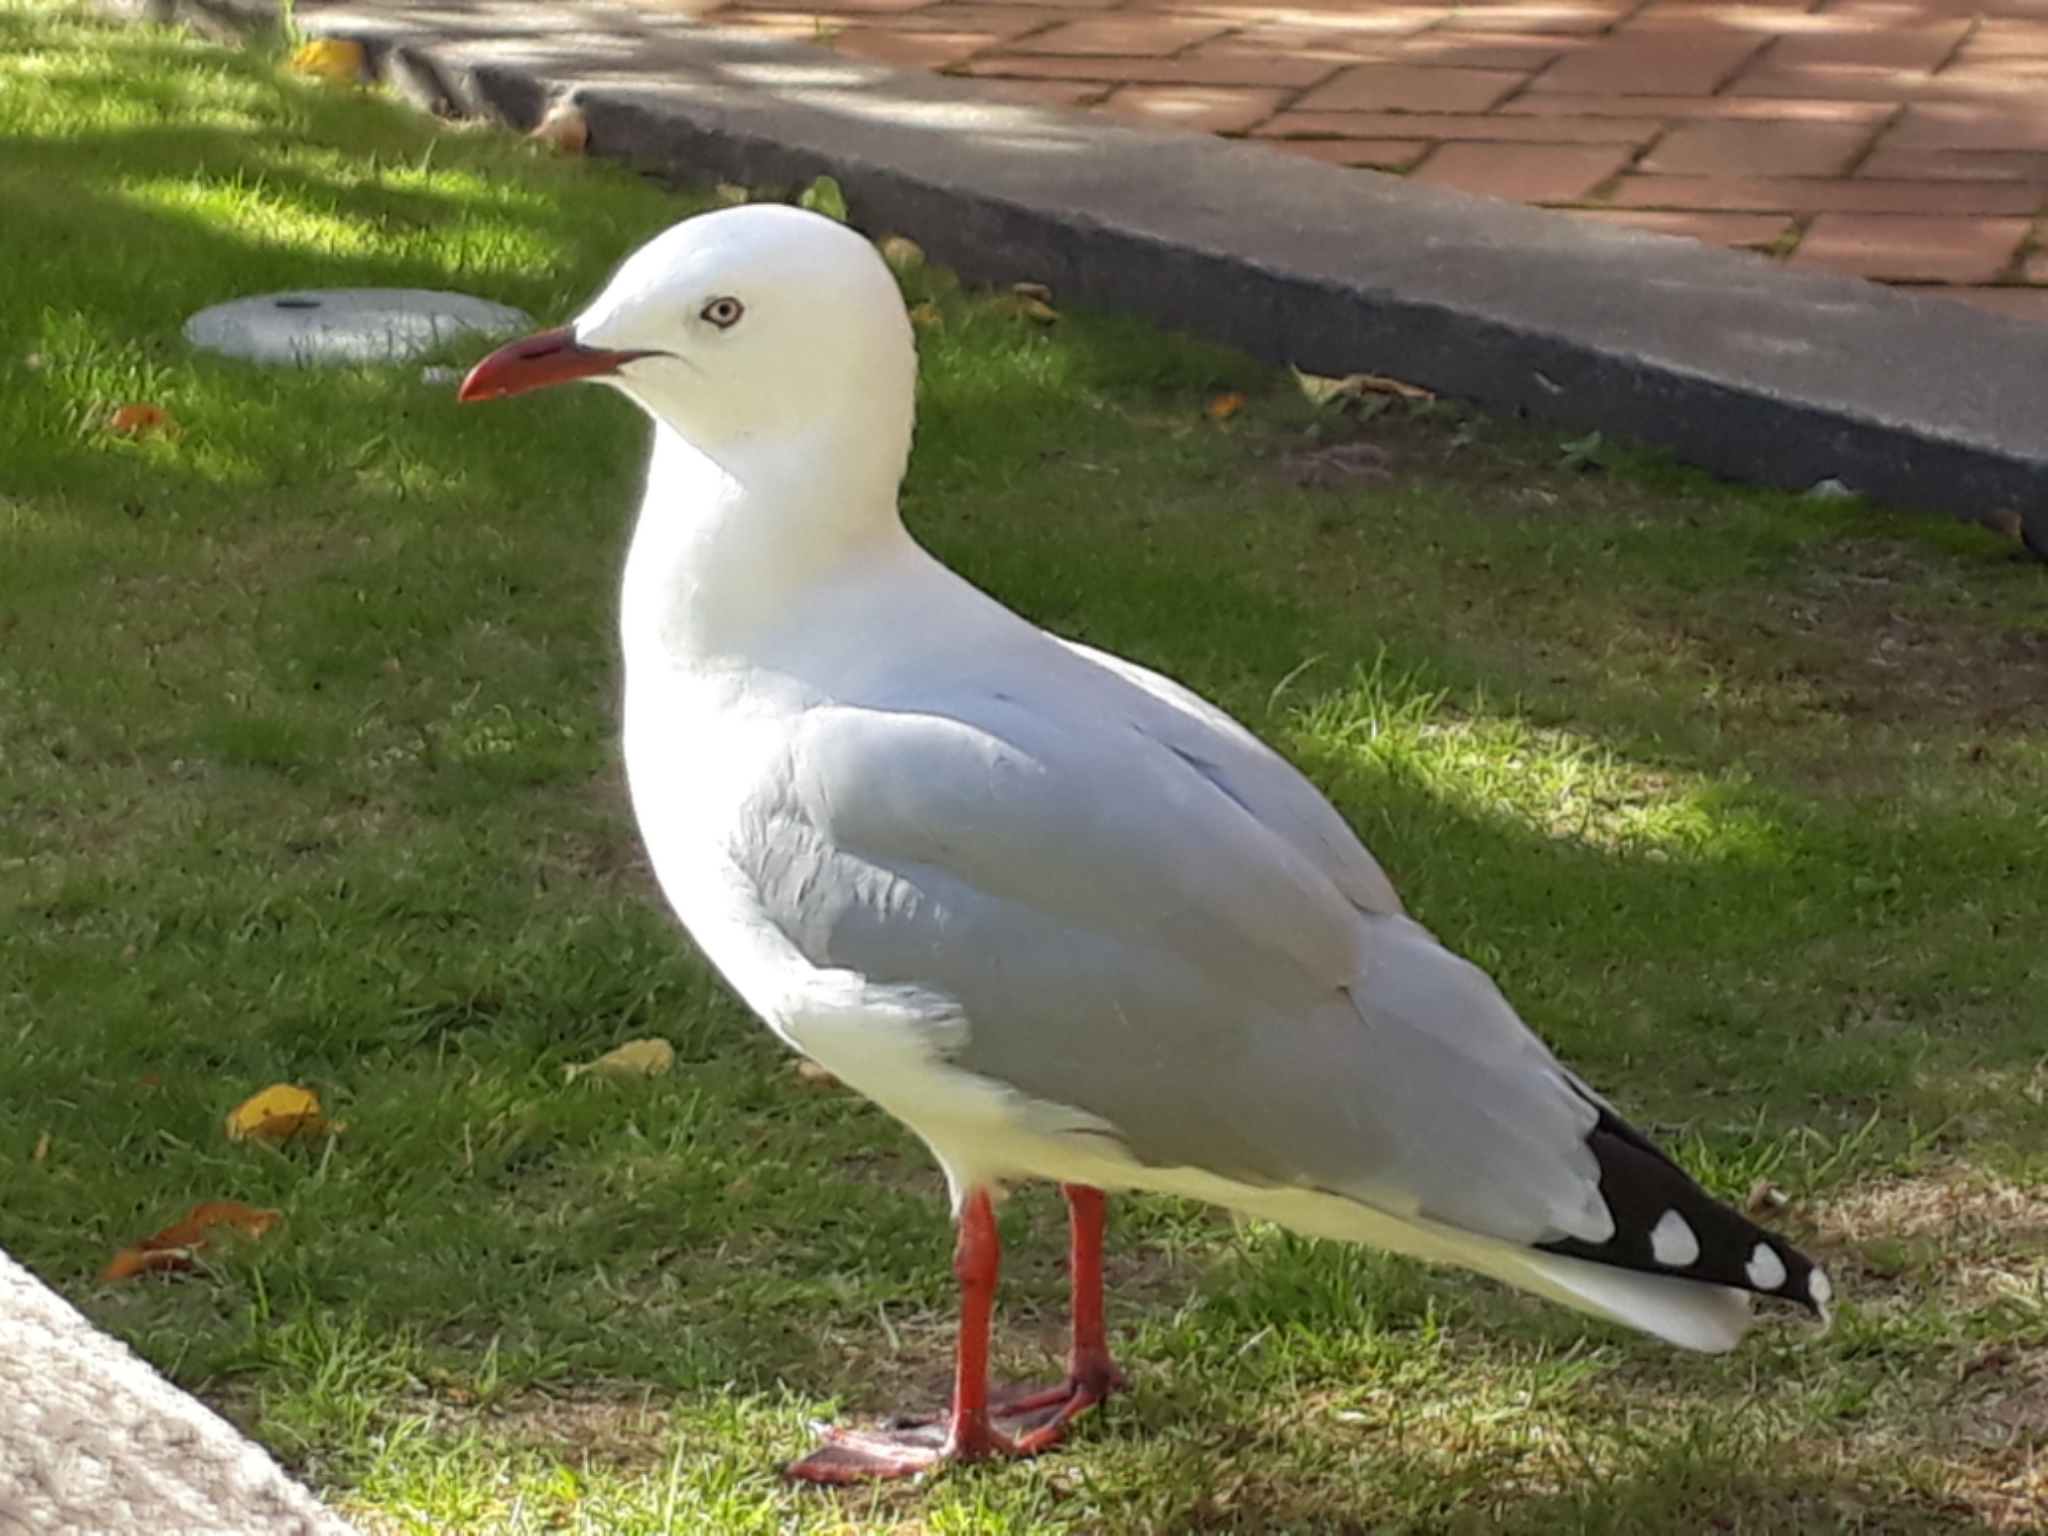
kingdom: Animalia
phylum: Chordata
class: Aves
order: Charadriiformes
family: Laridae
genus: Chroicocephalus
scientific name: Chroicocephalus novaehollandiae
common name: Silver gull
